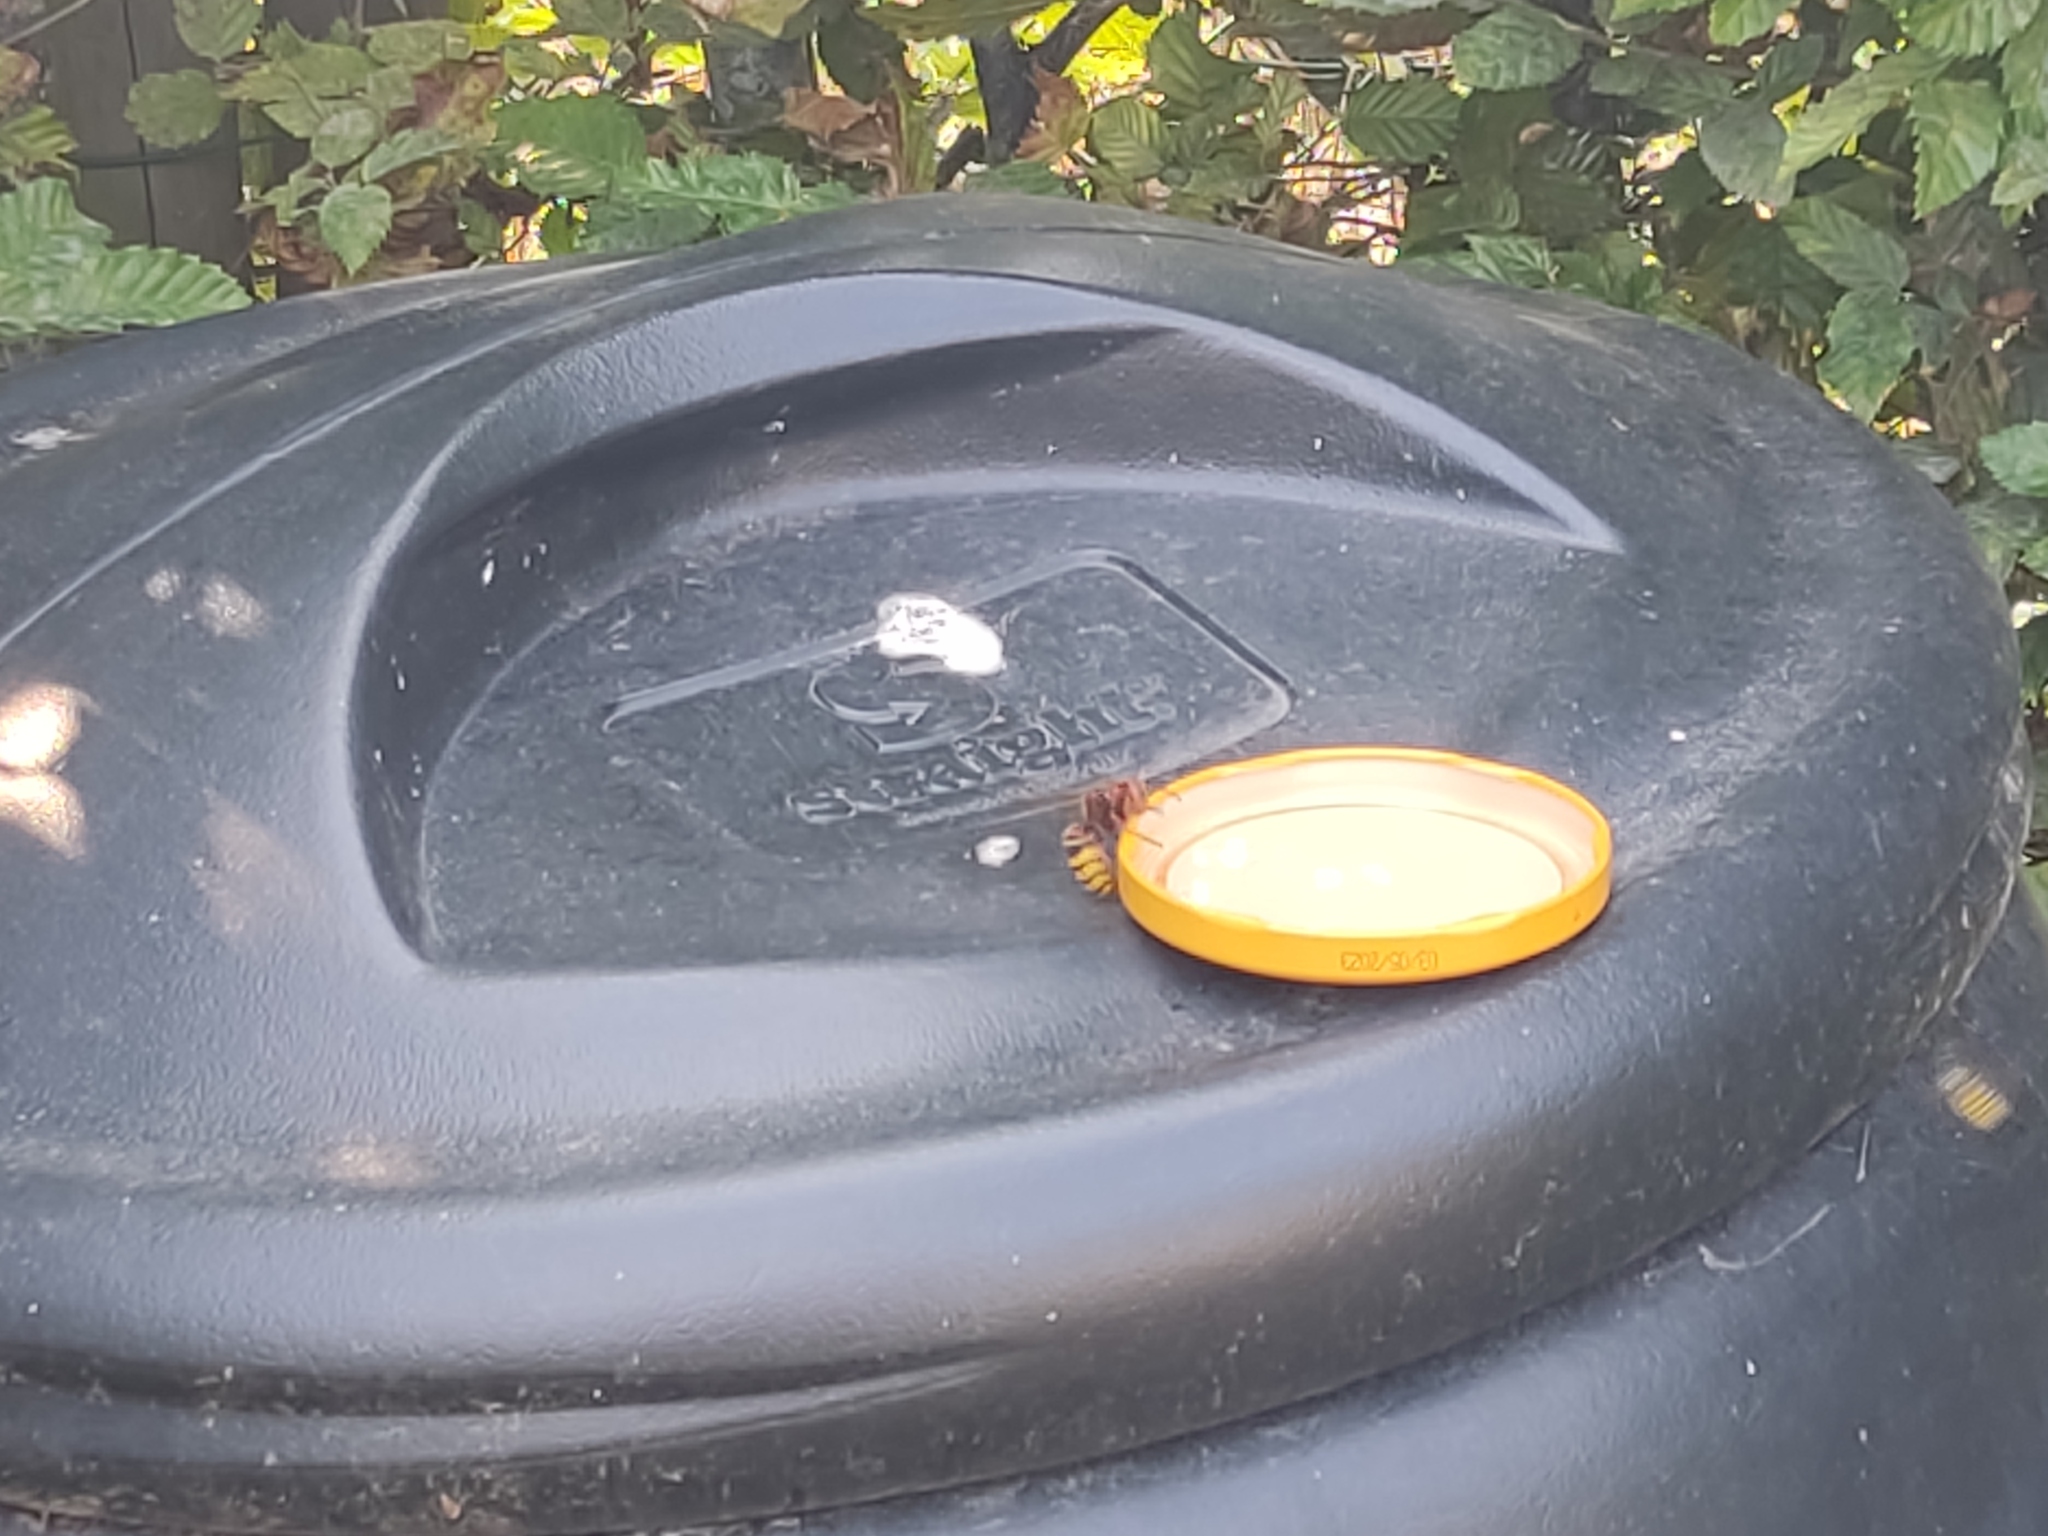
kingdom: Animalia
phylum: Arthropoda
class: Insecta
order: Hymenoptera
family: Vespidae
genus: Vespa
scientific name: Vespa crabro
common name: Hornet
